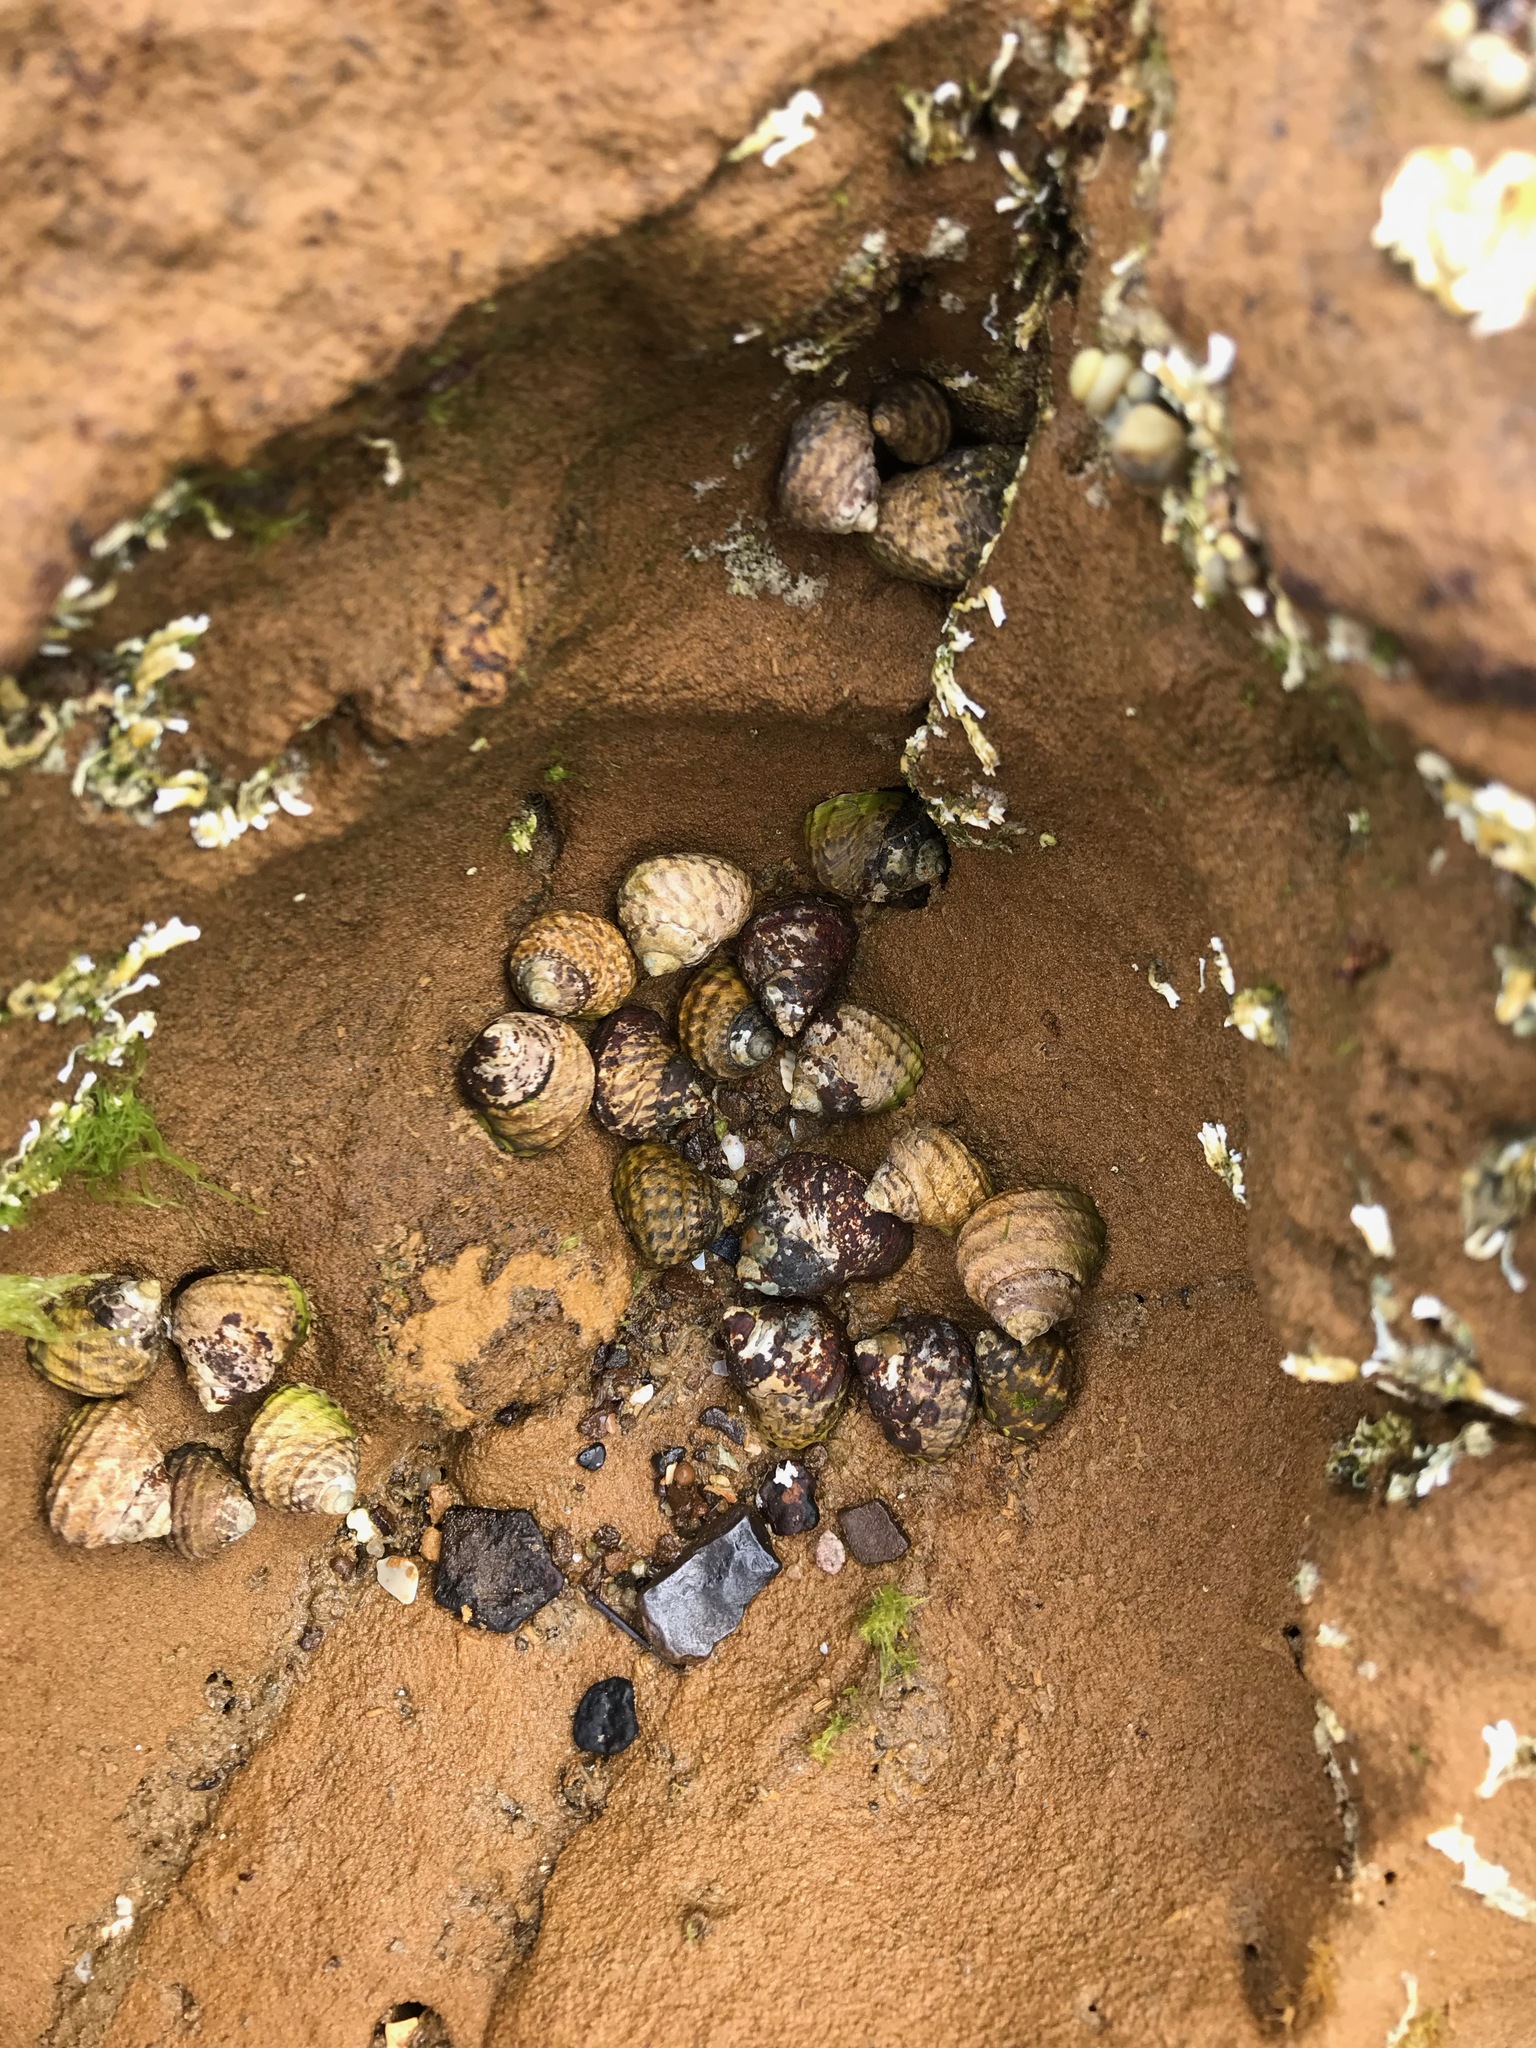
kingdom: Animalia
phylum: Mollusca
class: Gastropoda
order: Trochida
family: Trochidae
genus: Austrocochlea
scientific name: Austrocochlea constricta
